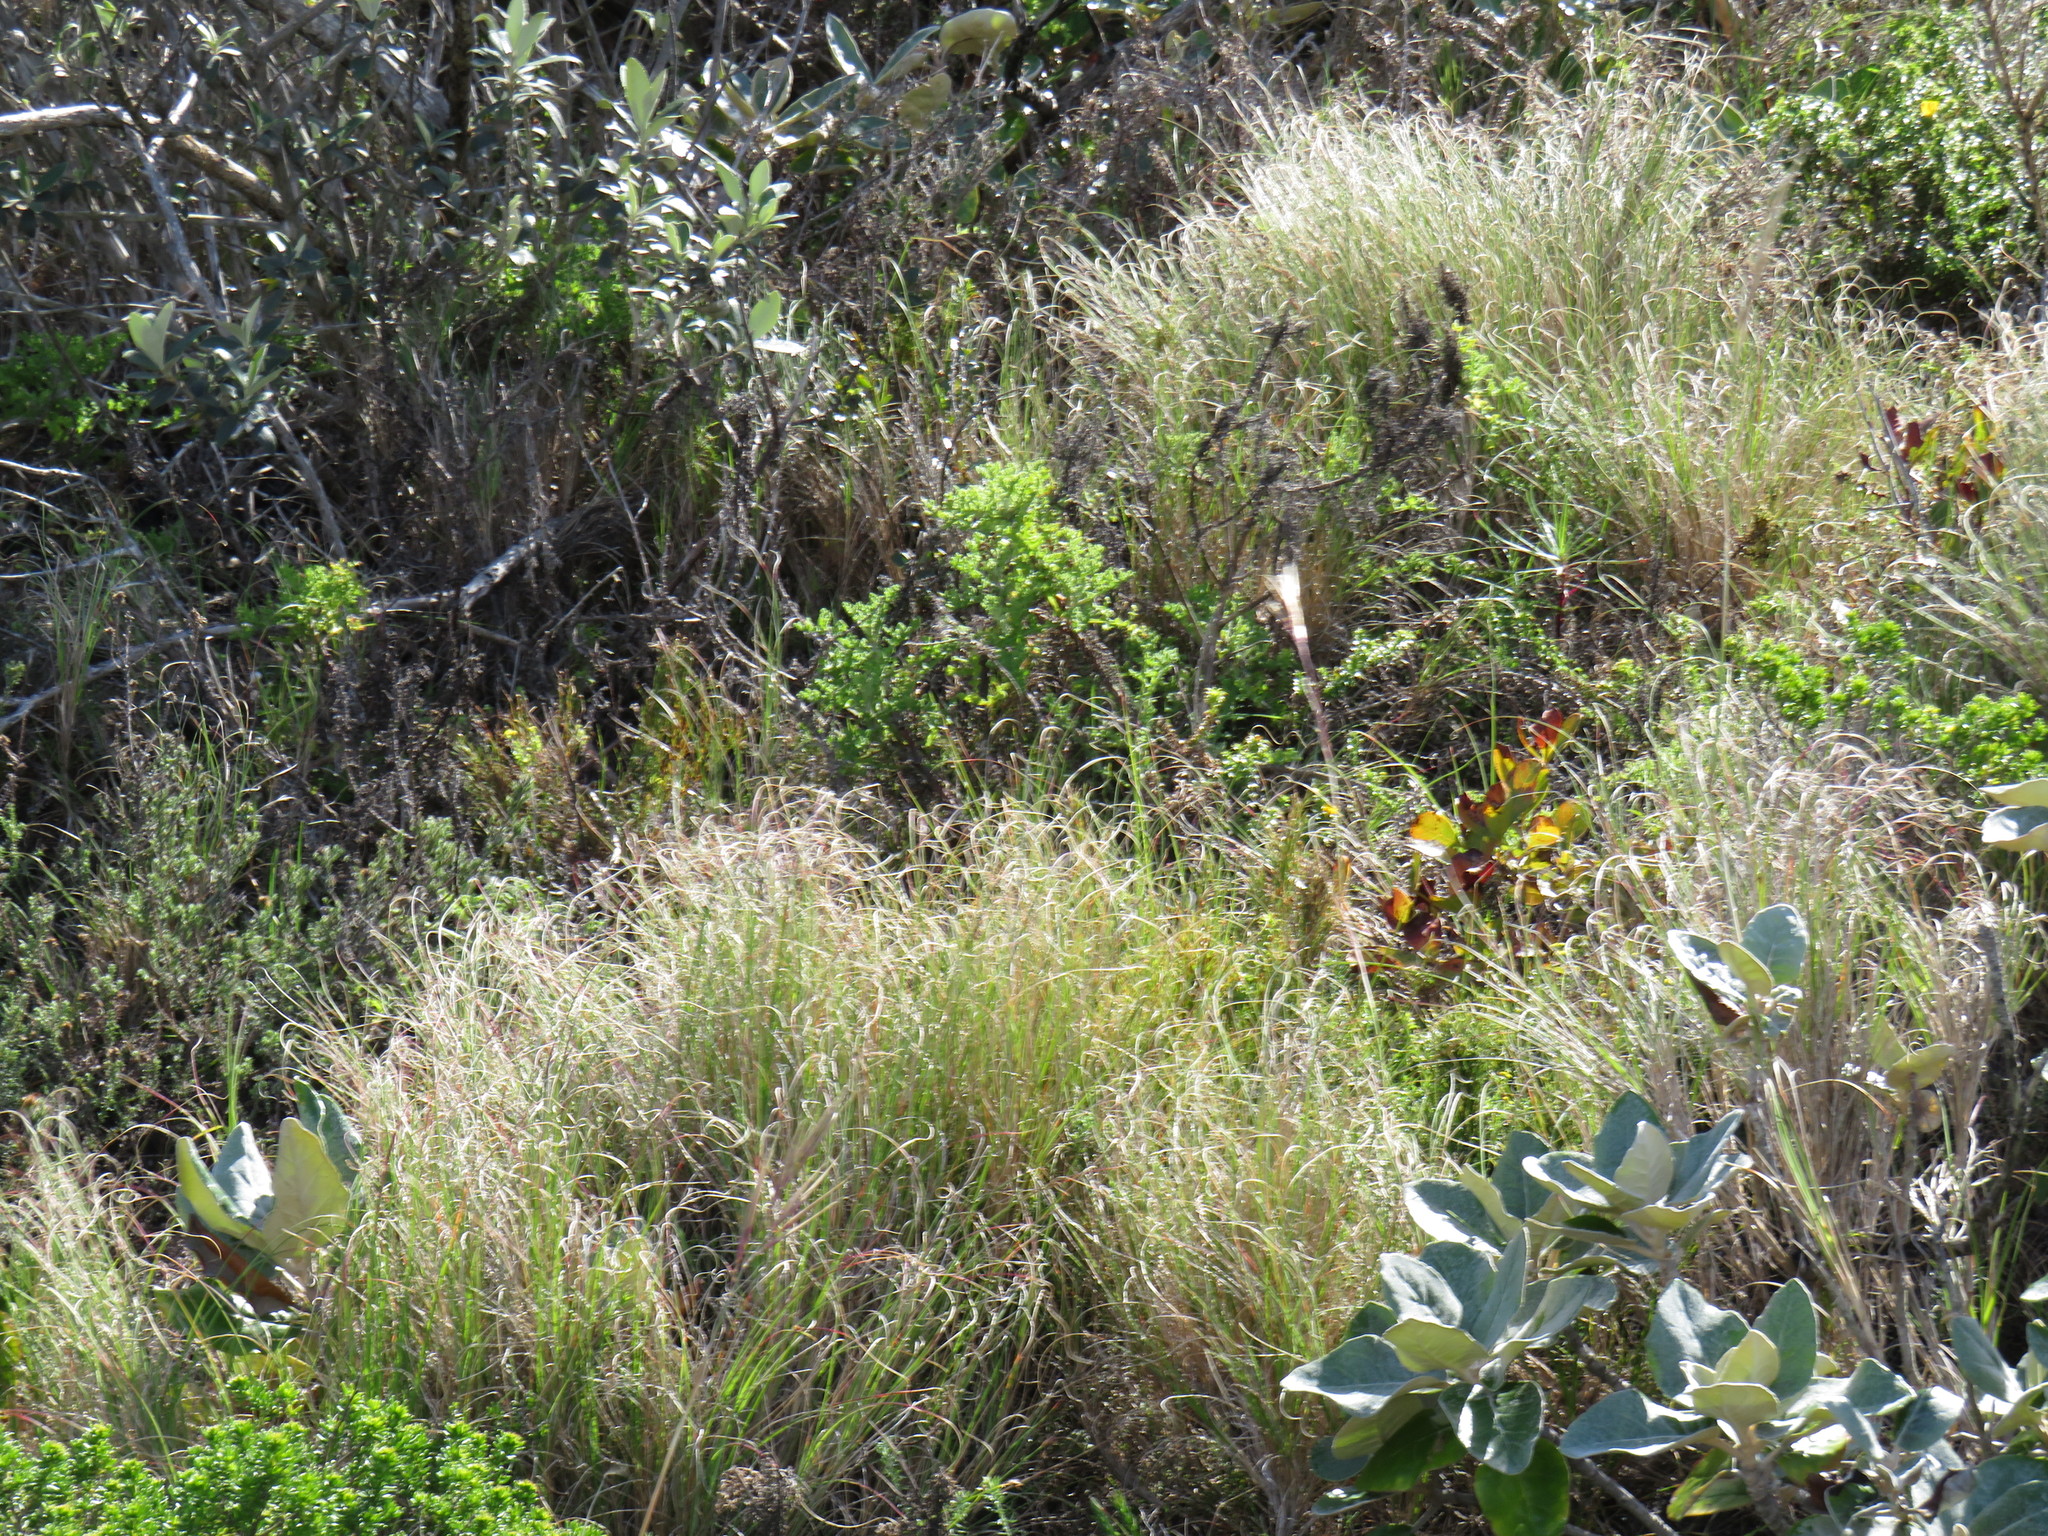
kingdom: Plantae
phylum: Tracheophyta
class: Liliopsida
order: Poales
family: Poaceae
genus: Pseudopentameris
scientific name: Pseudopentameris macrantha
